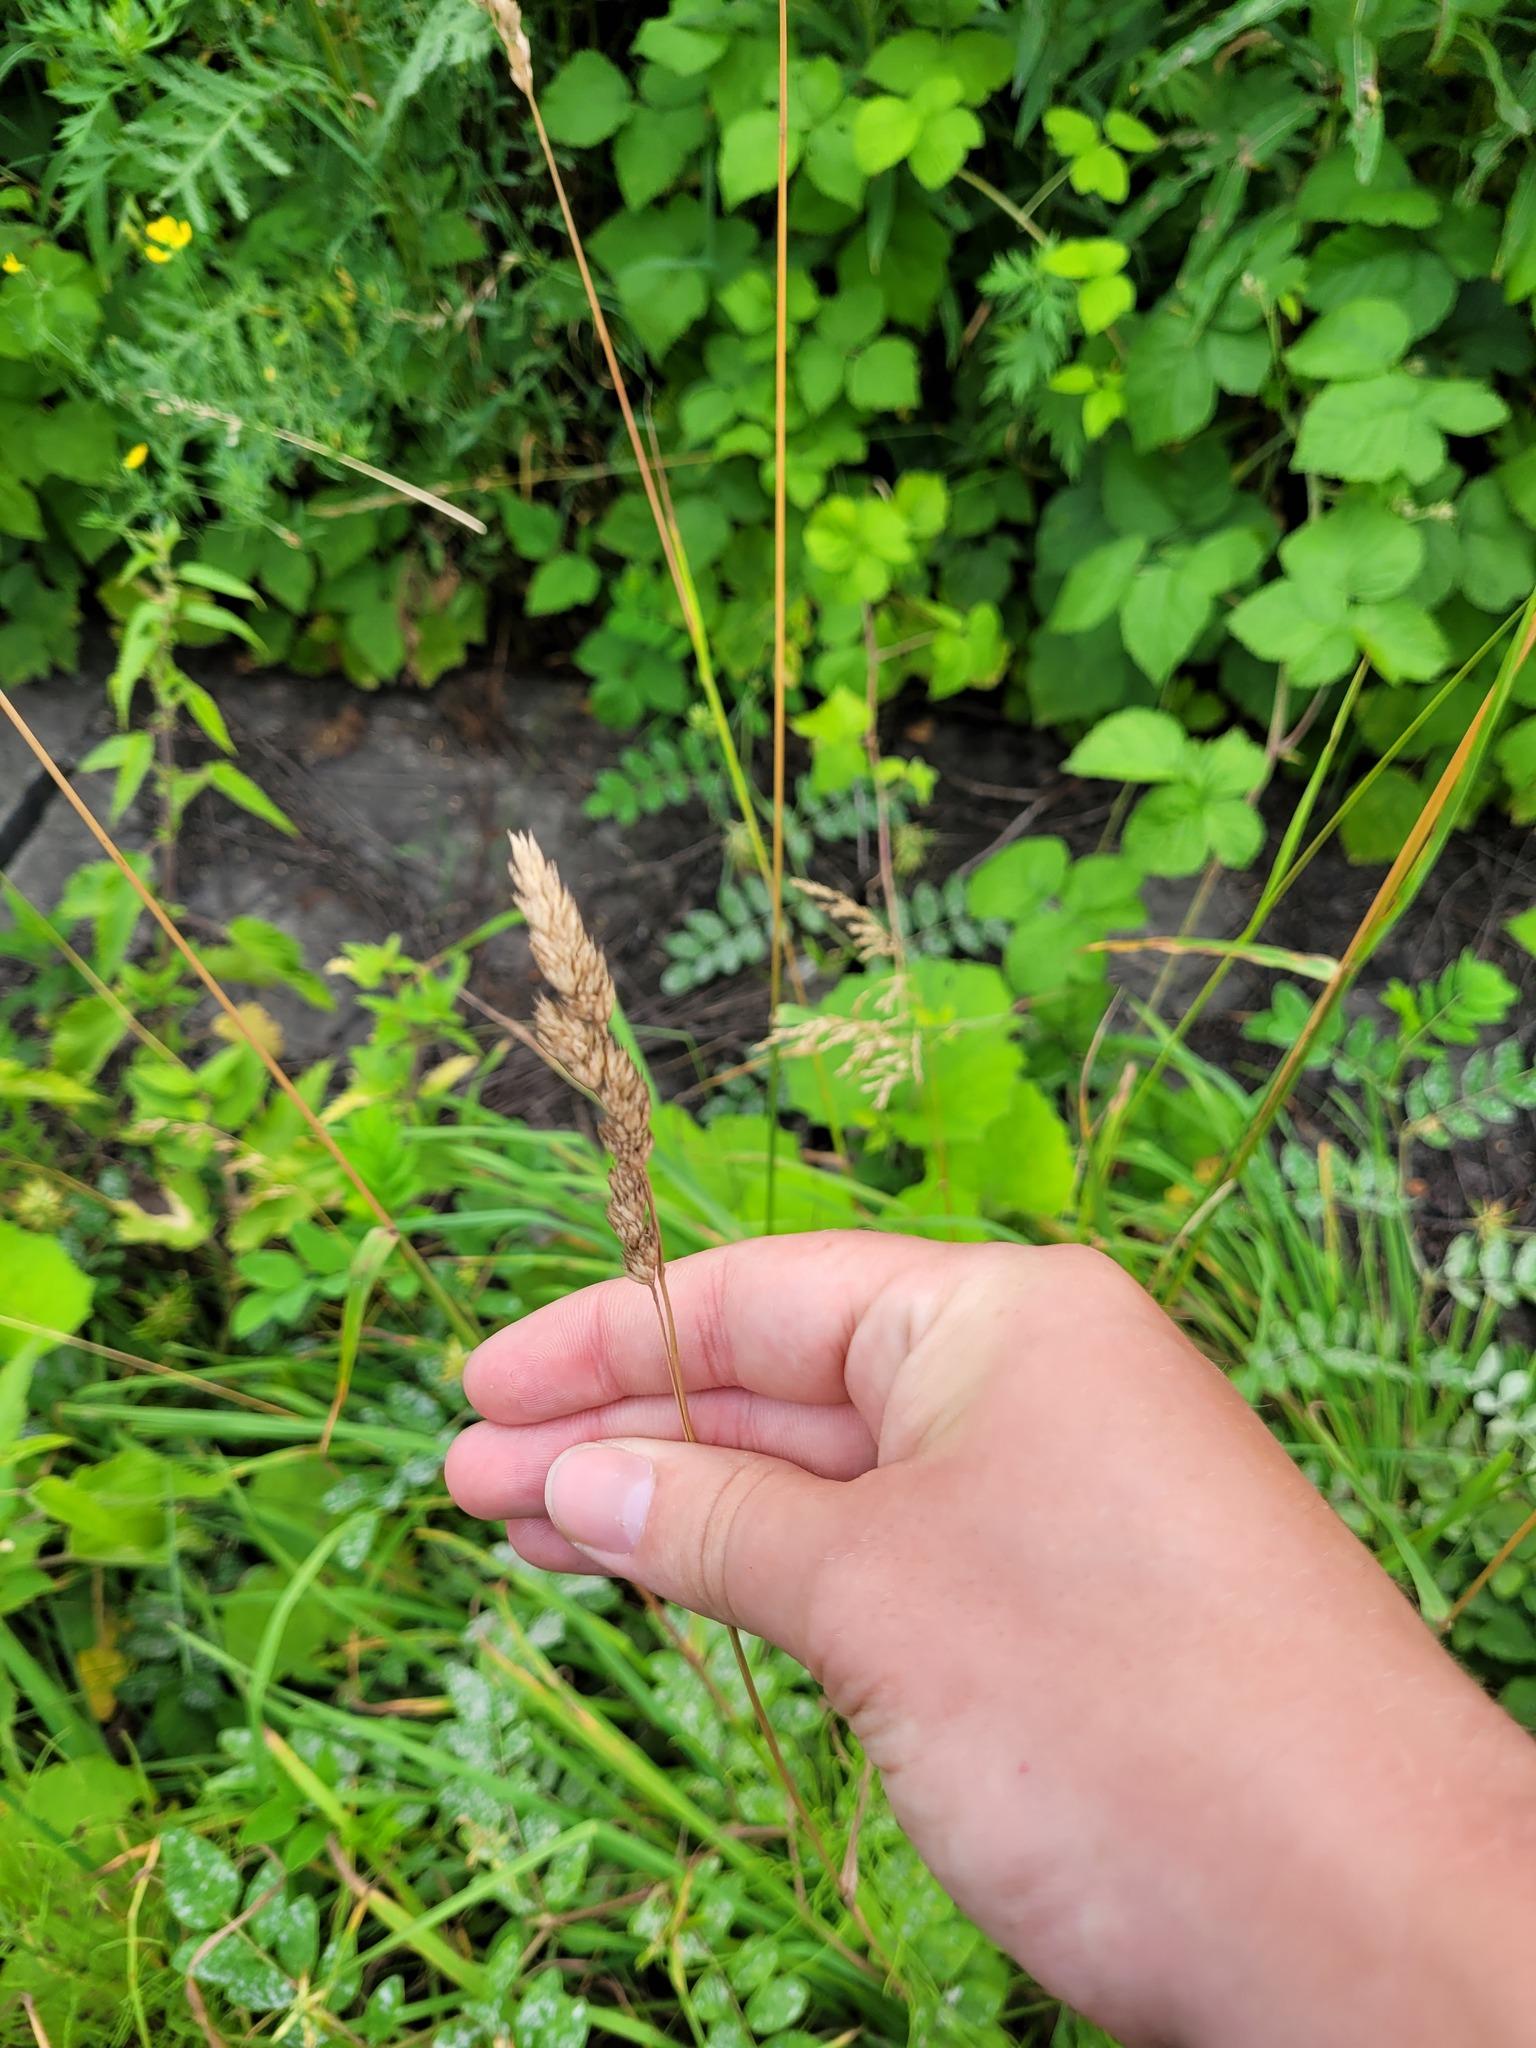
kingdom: Plantae
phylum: Tracheophyta
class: Liliopsida
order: Poales
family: Poaceae
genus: Dactylis
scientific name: Dactylis glomerata
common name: Orchardgrass
